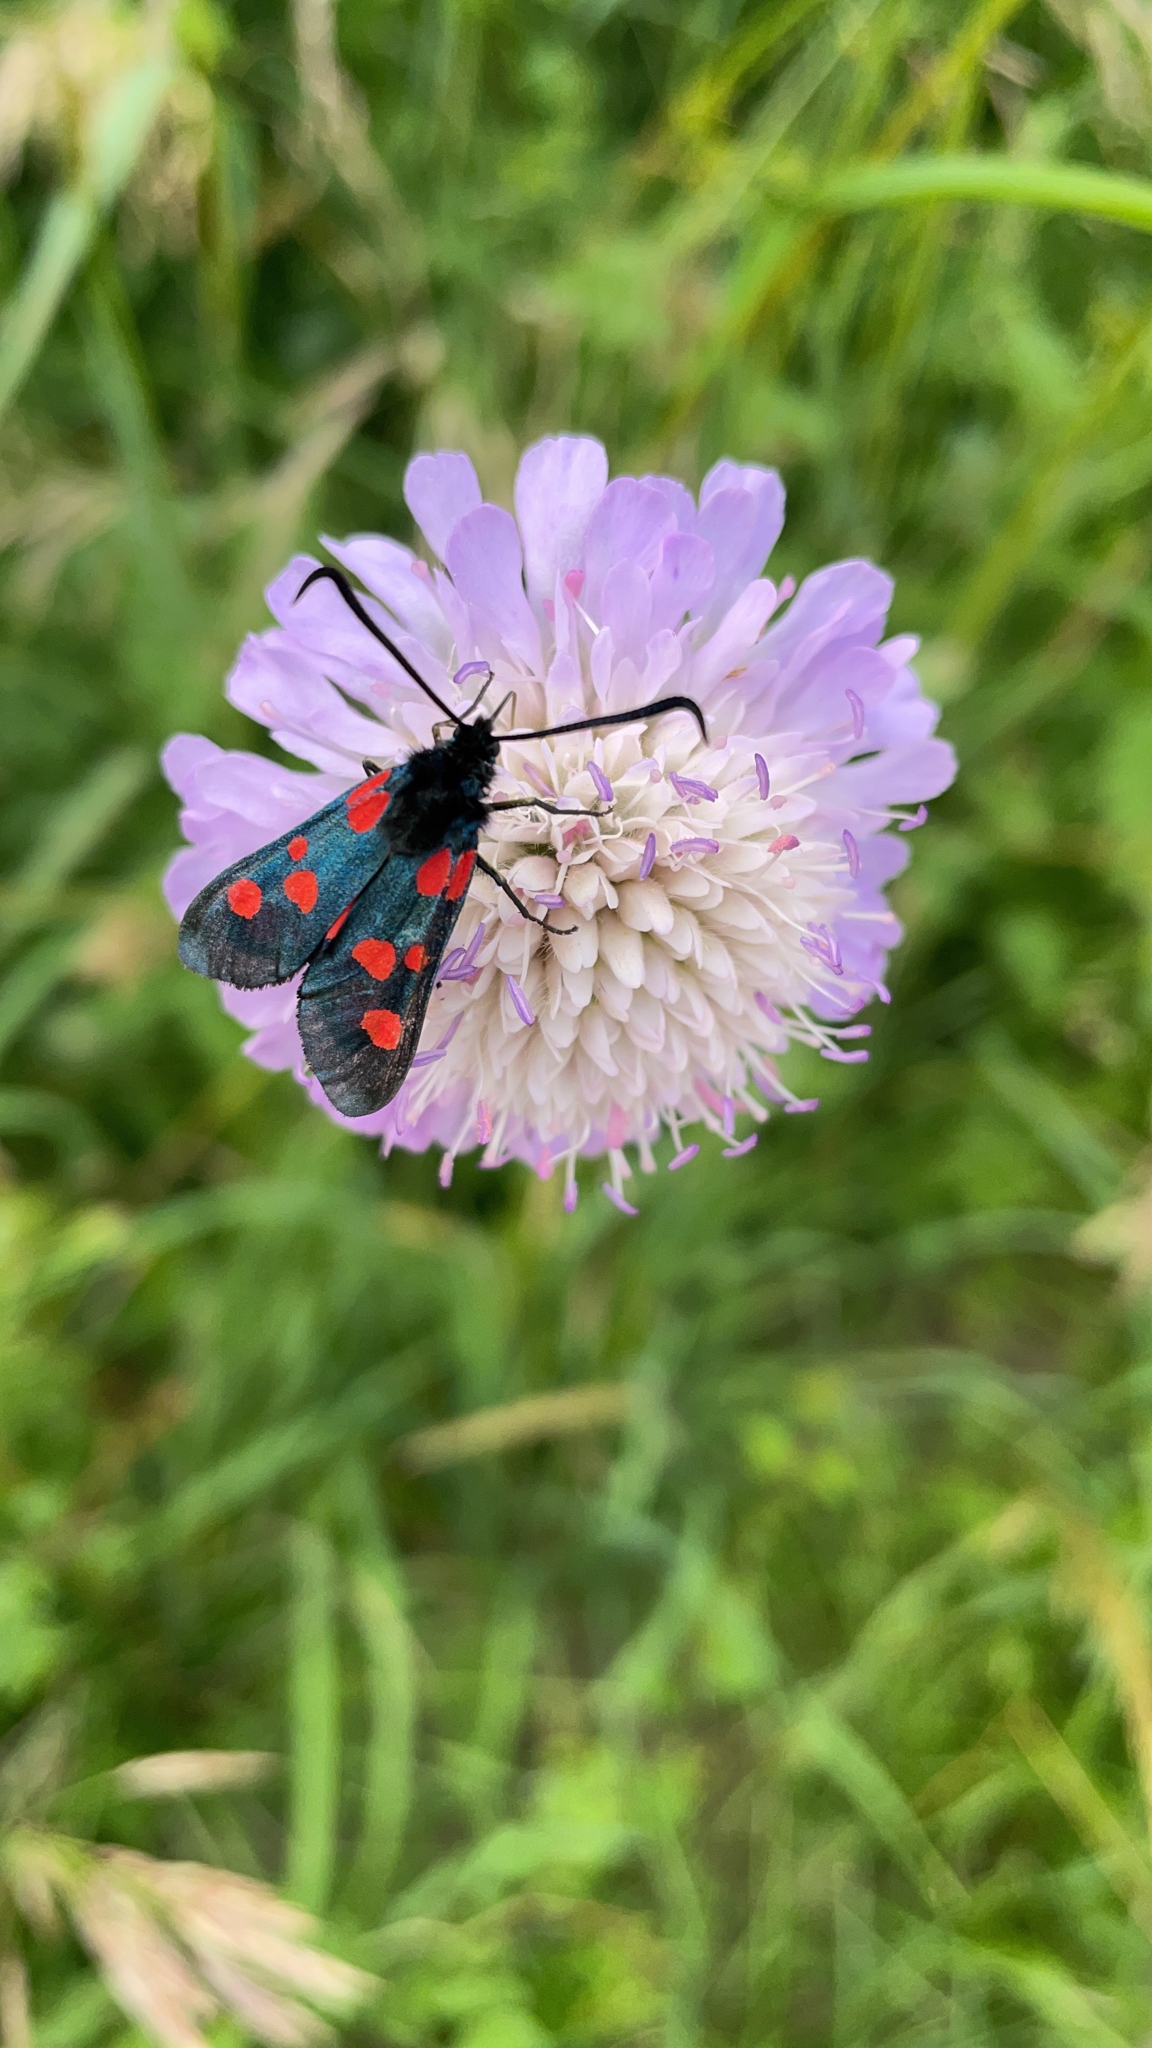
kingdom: Animalia
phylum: Arthropoda
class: Insecta
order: Lepidoptera
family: Zygaenidae
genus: Zygaena
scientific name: Zygaena filipendulae
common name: Six-spot burnet
